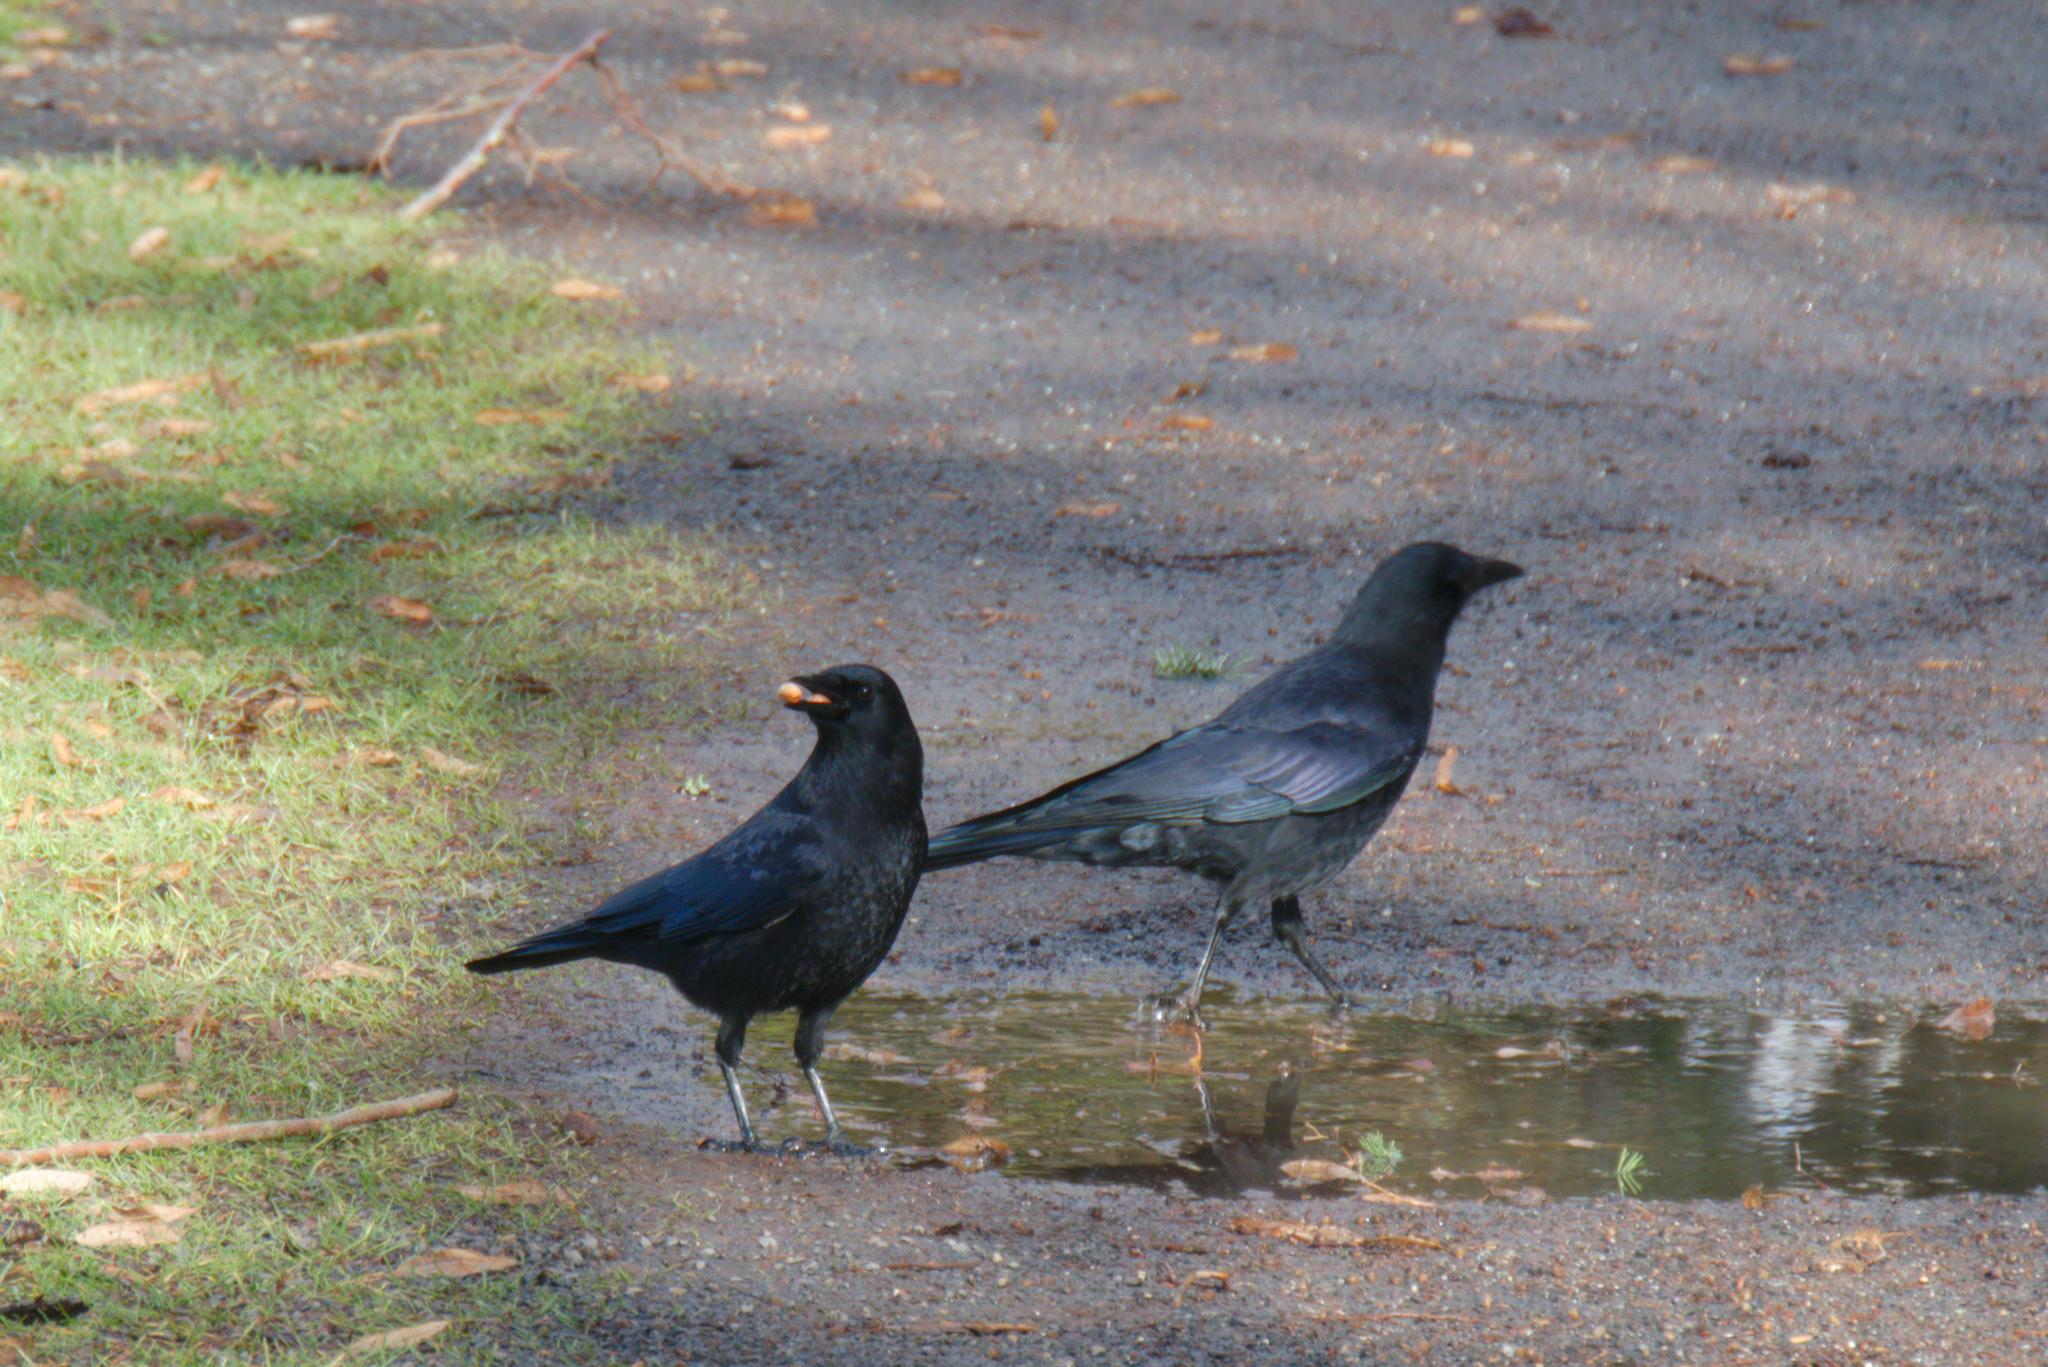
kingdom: Animalia
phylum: Chordata
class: Aves
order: Passeriformes
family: Corvidae
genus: Corvus
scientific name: Corvus brachyrhynchos
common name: American crow
